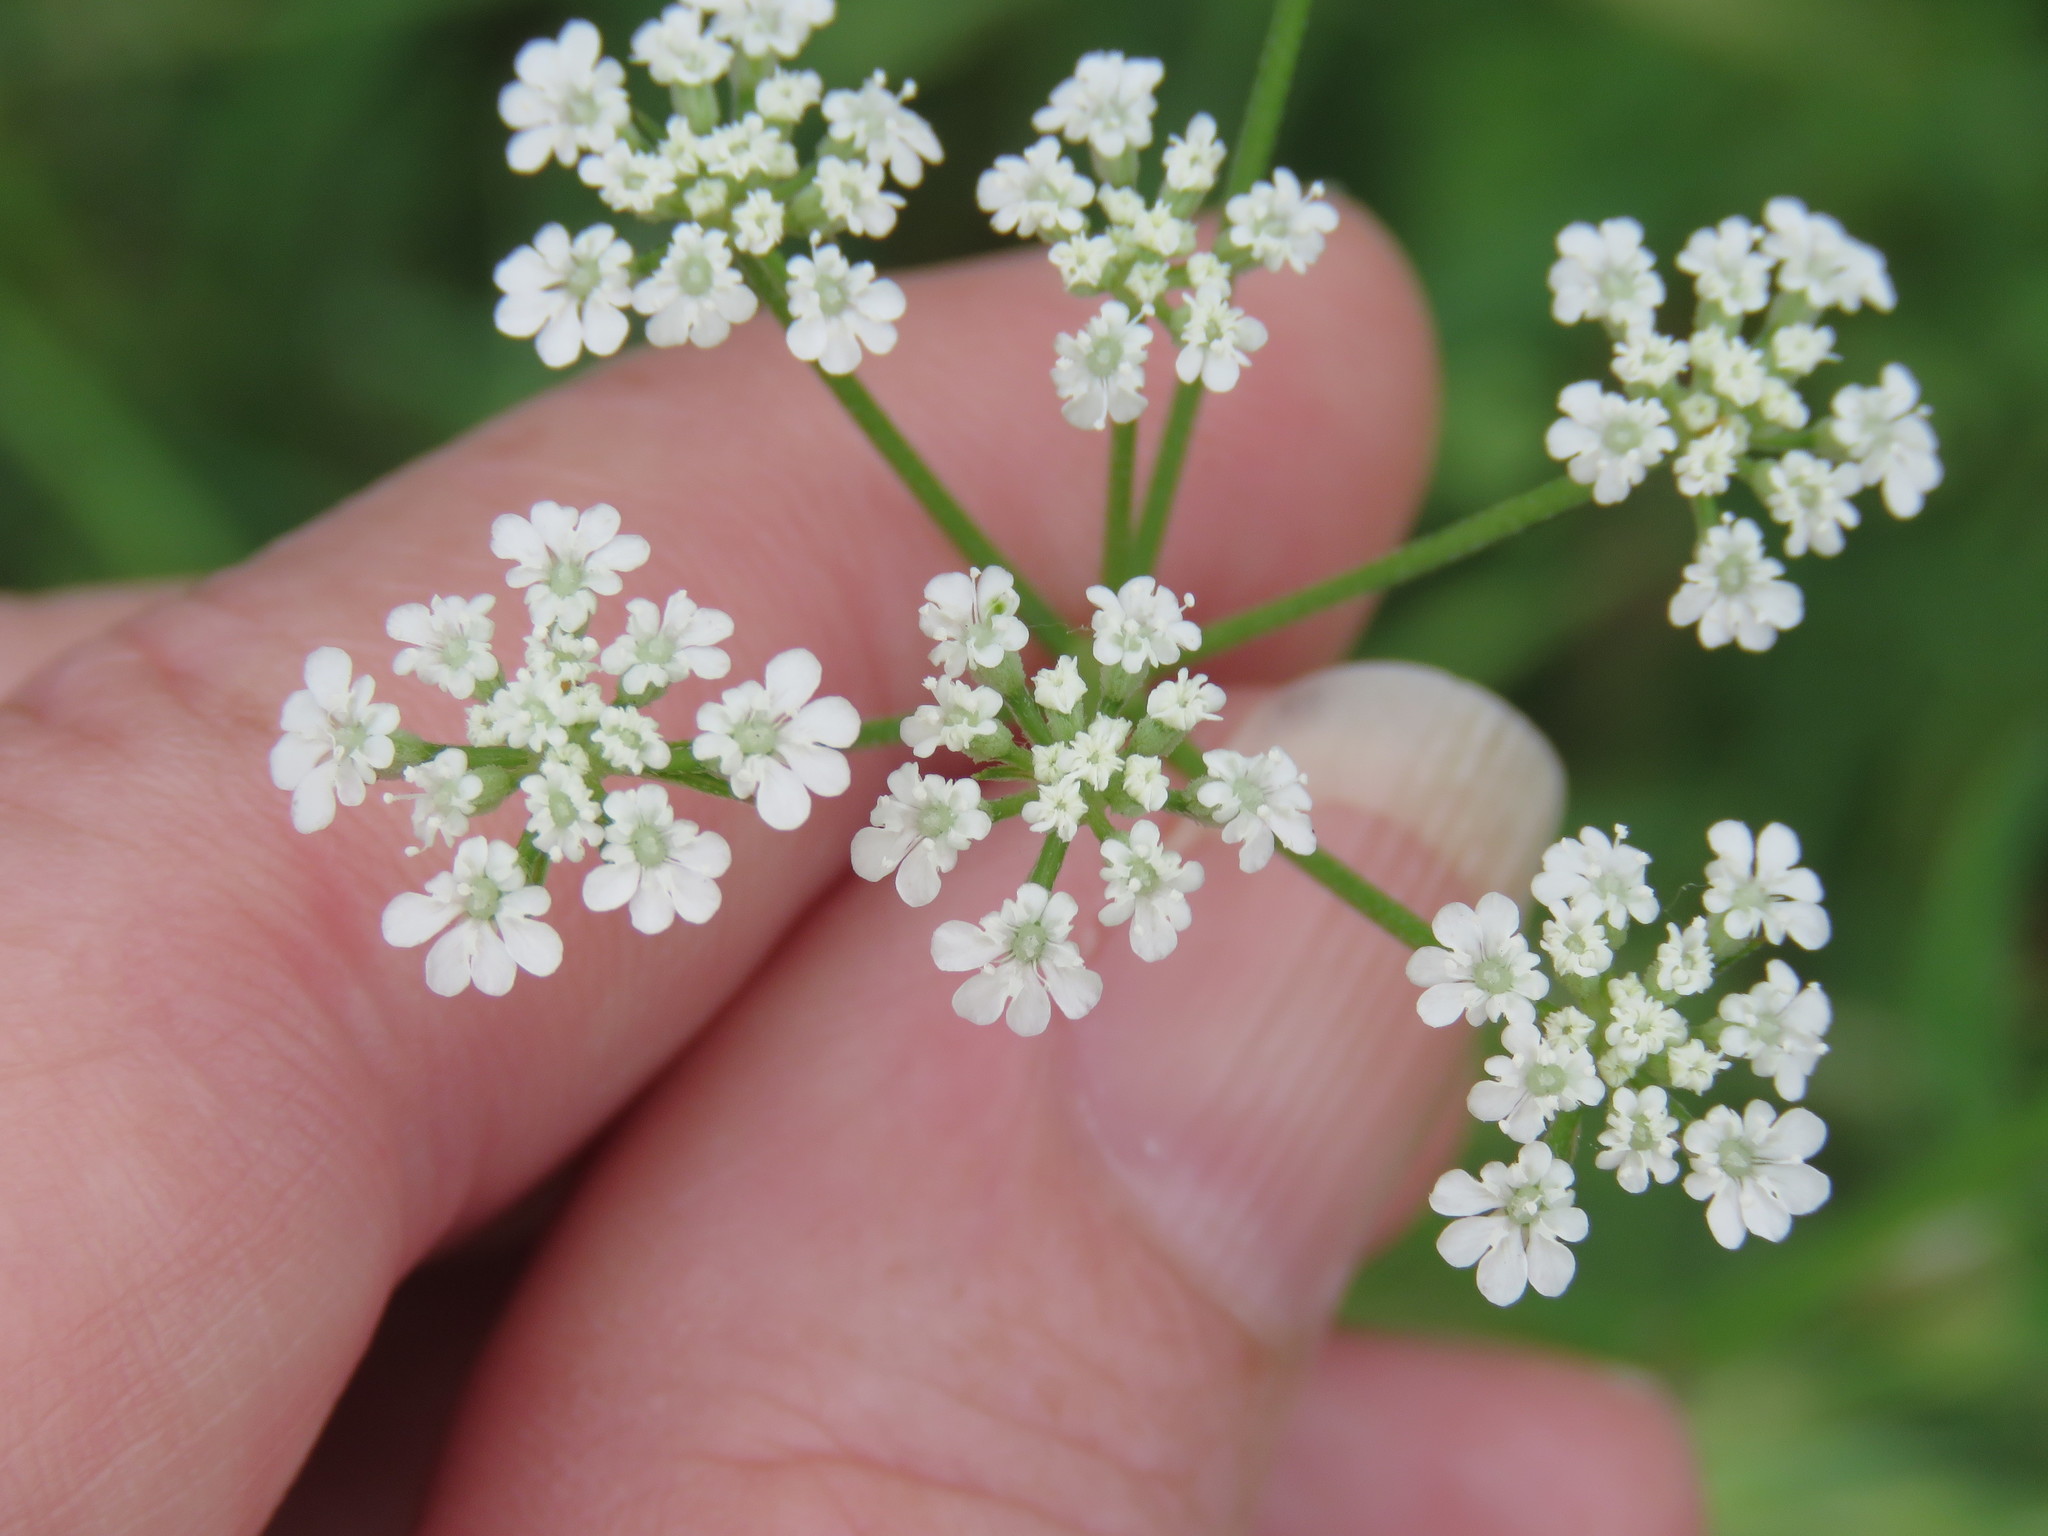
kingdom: Plantae
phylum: Tracheophyta
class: Magnoliopsida
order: Apiales
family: Apiaceae
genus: Torilis
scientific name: Torilis arvensis
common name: Spreading hedge-parsley
